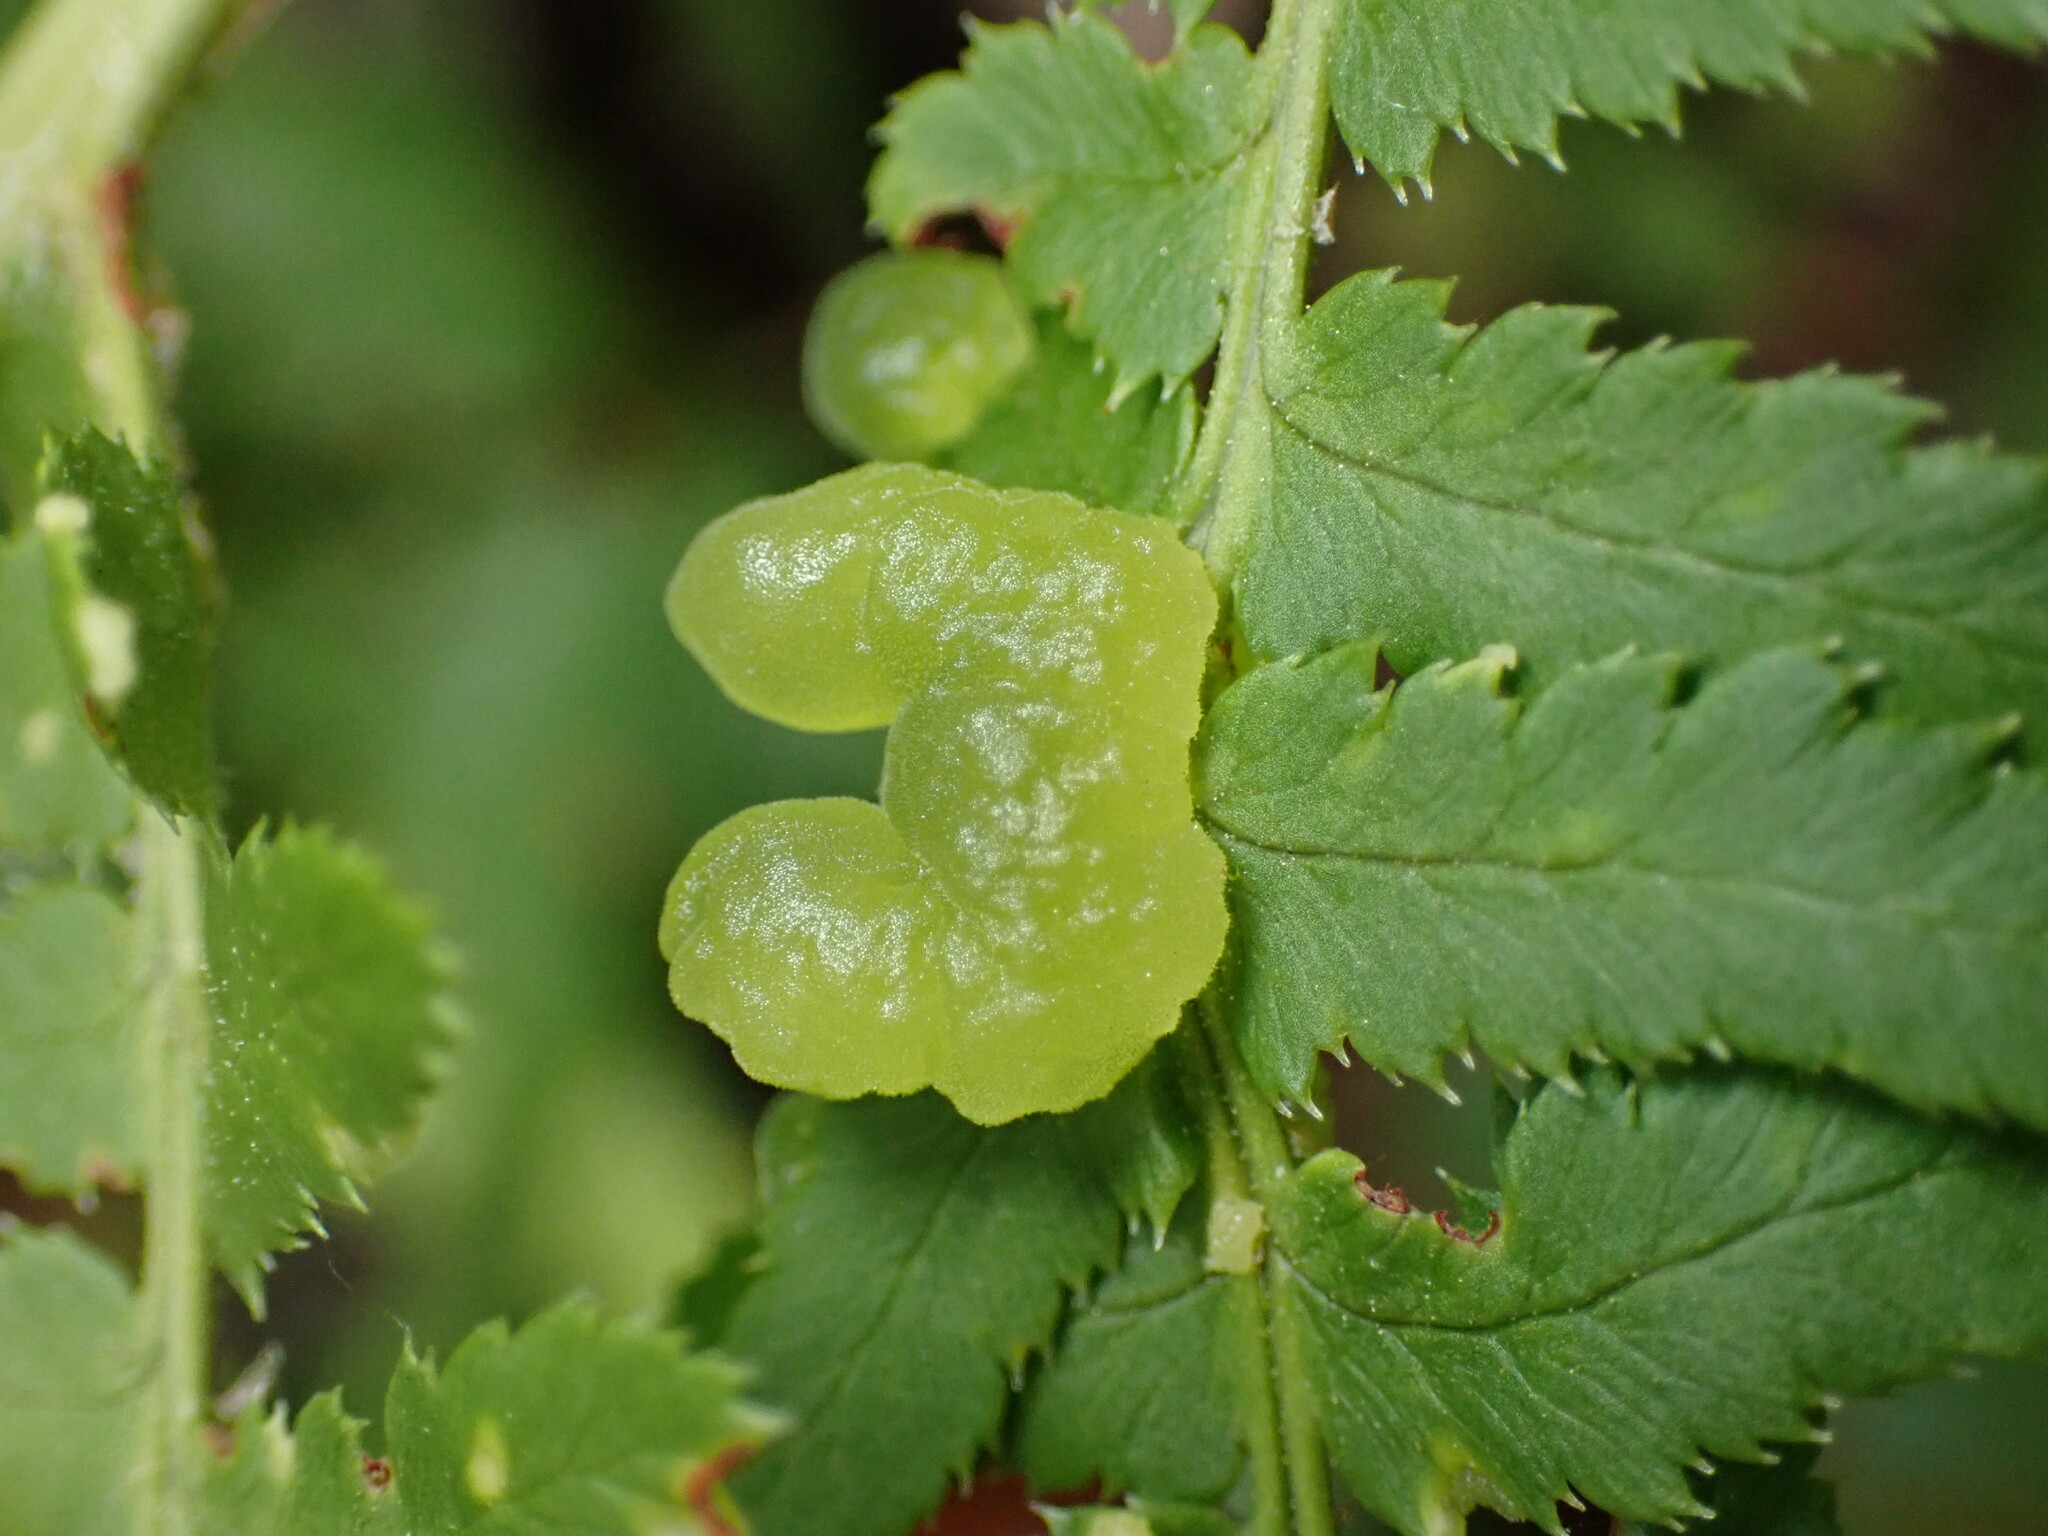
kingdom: Fungi
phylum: Ascomycota
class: Taphrinomycetes
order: Taphrinales
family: Taphrinaceae
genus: Taphrina
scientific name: Taphrina californica
